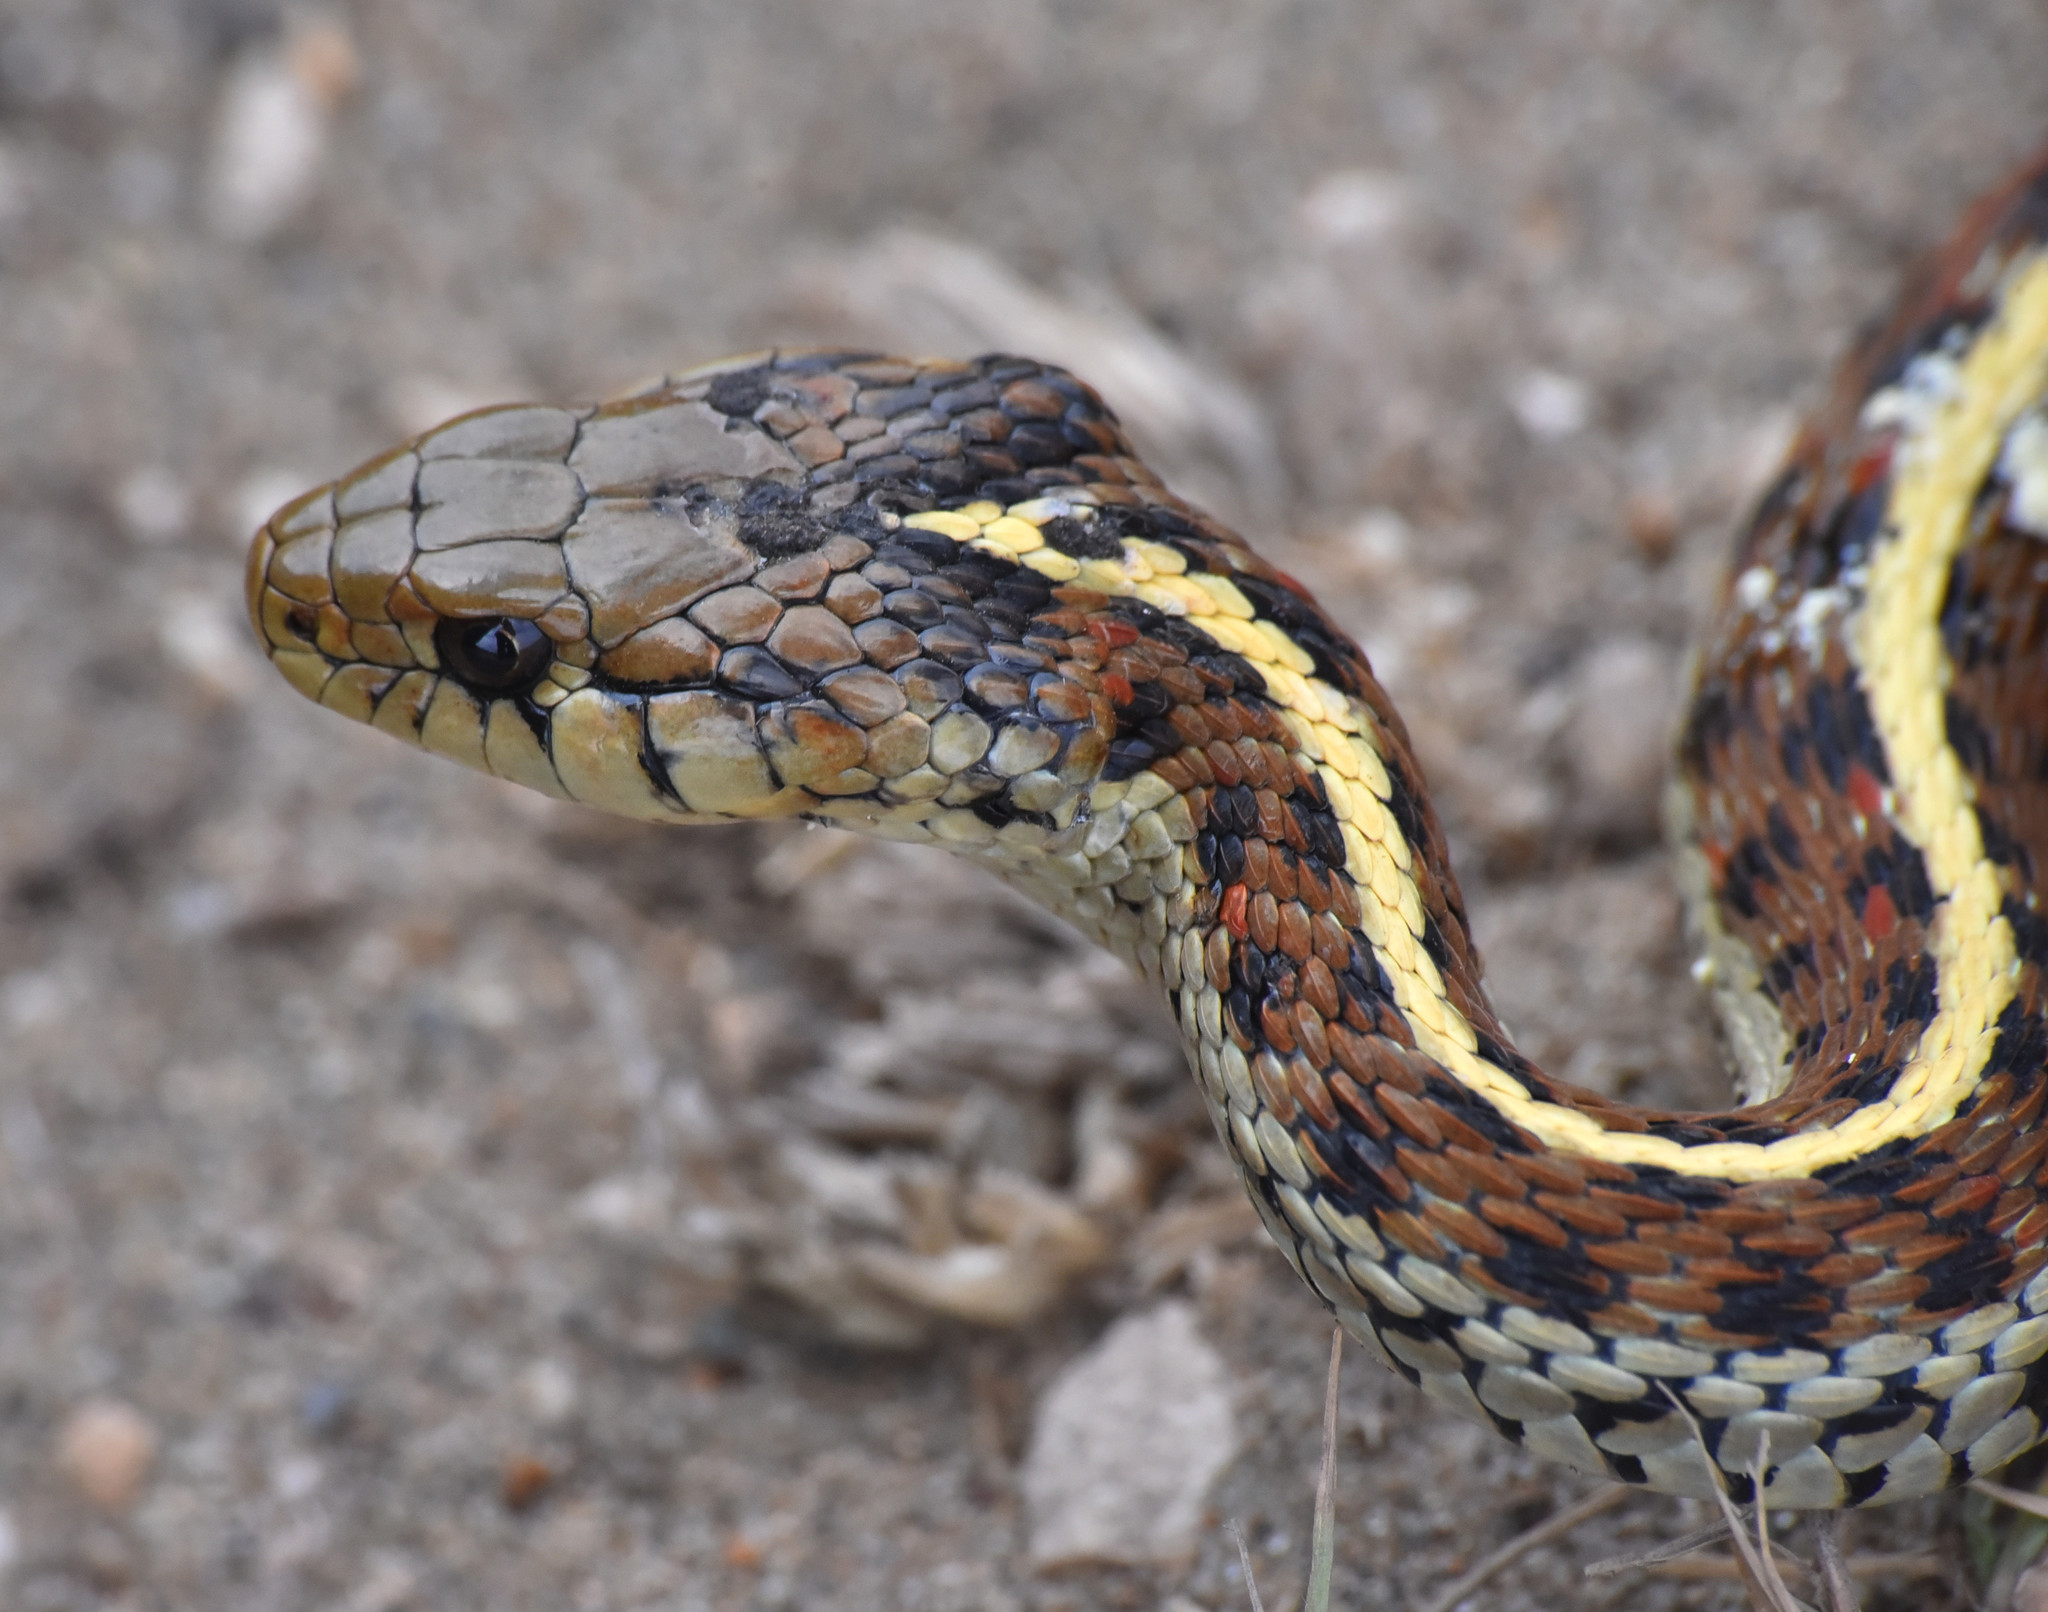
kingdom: Animalia
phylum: Chordata
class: Squamata
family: Colubridae
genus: Thamnophis
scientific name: Thamnophis elegans
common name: Western terrestrial garter snake
